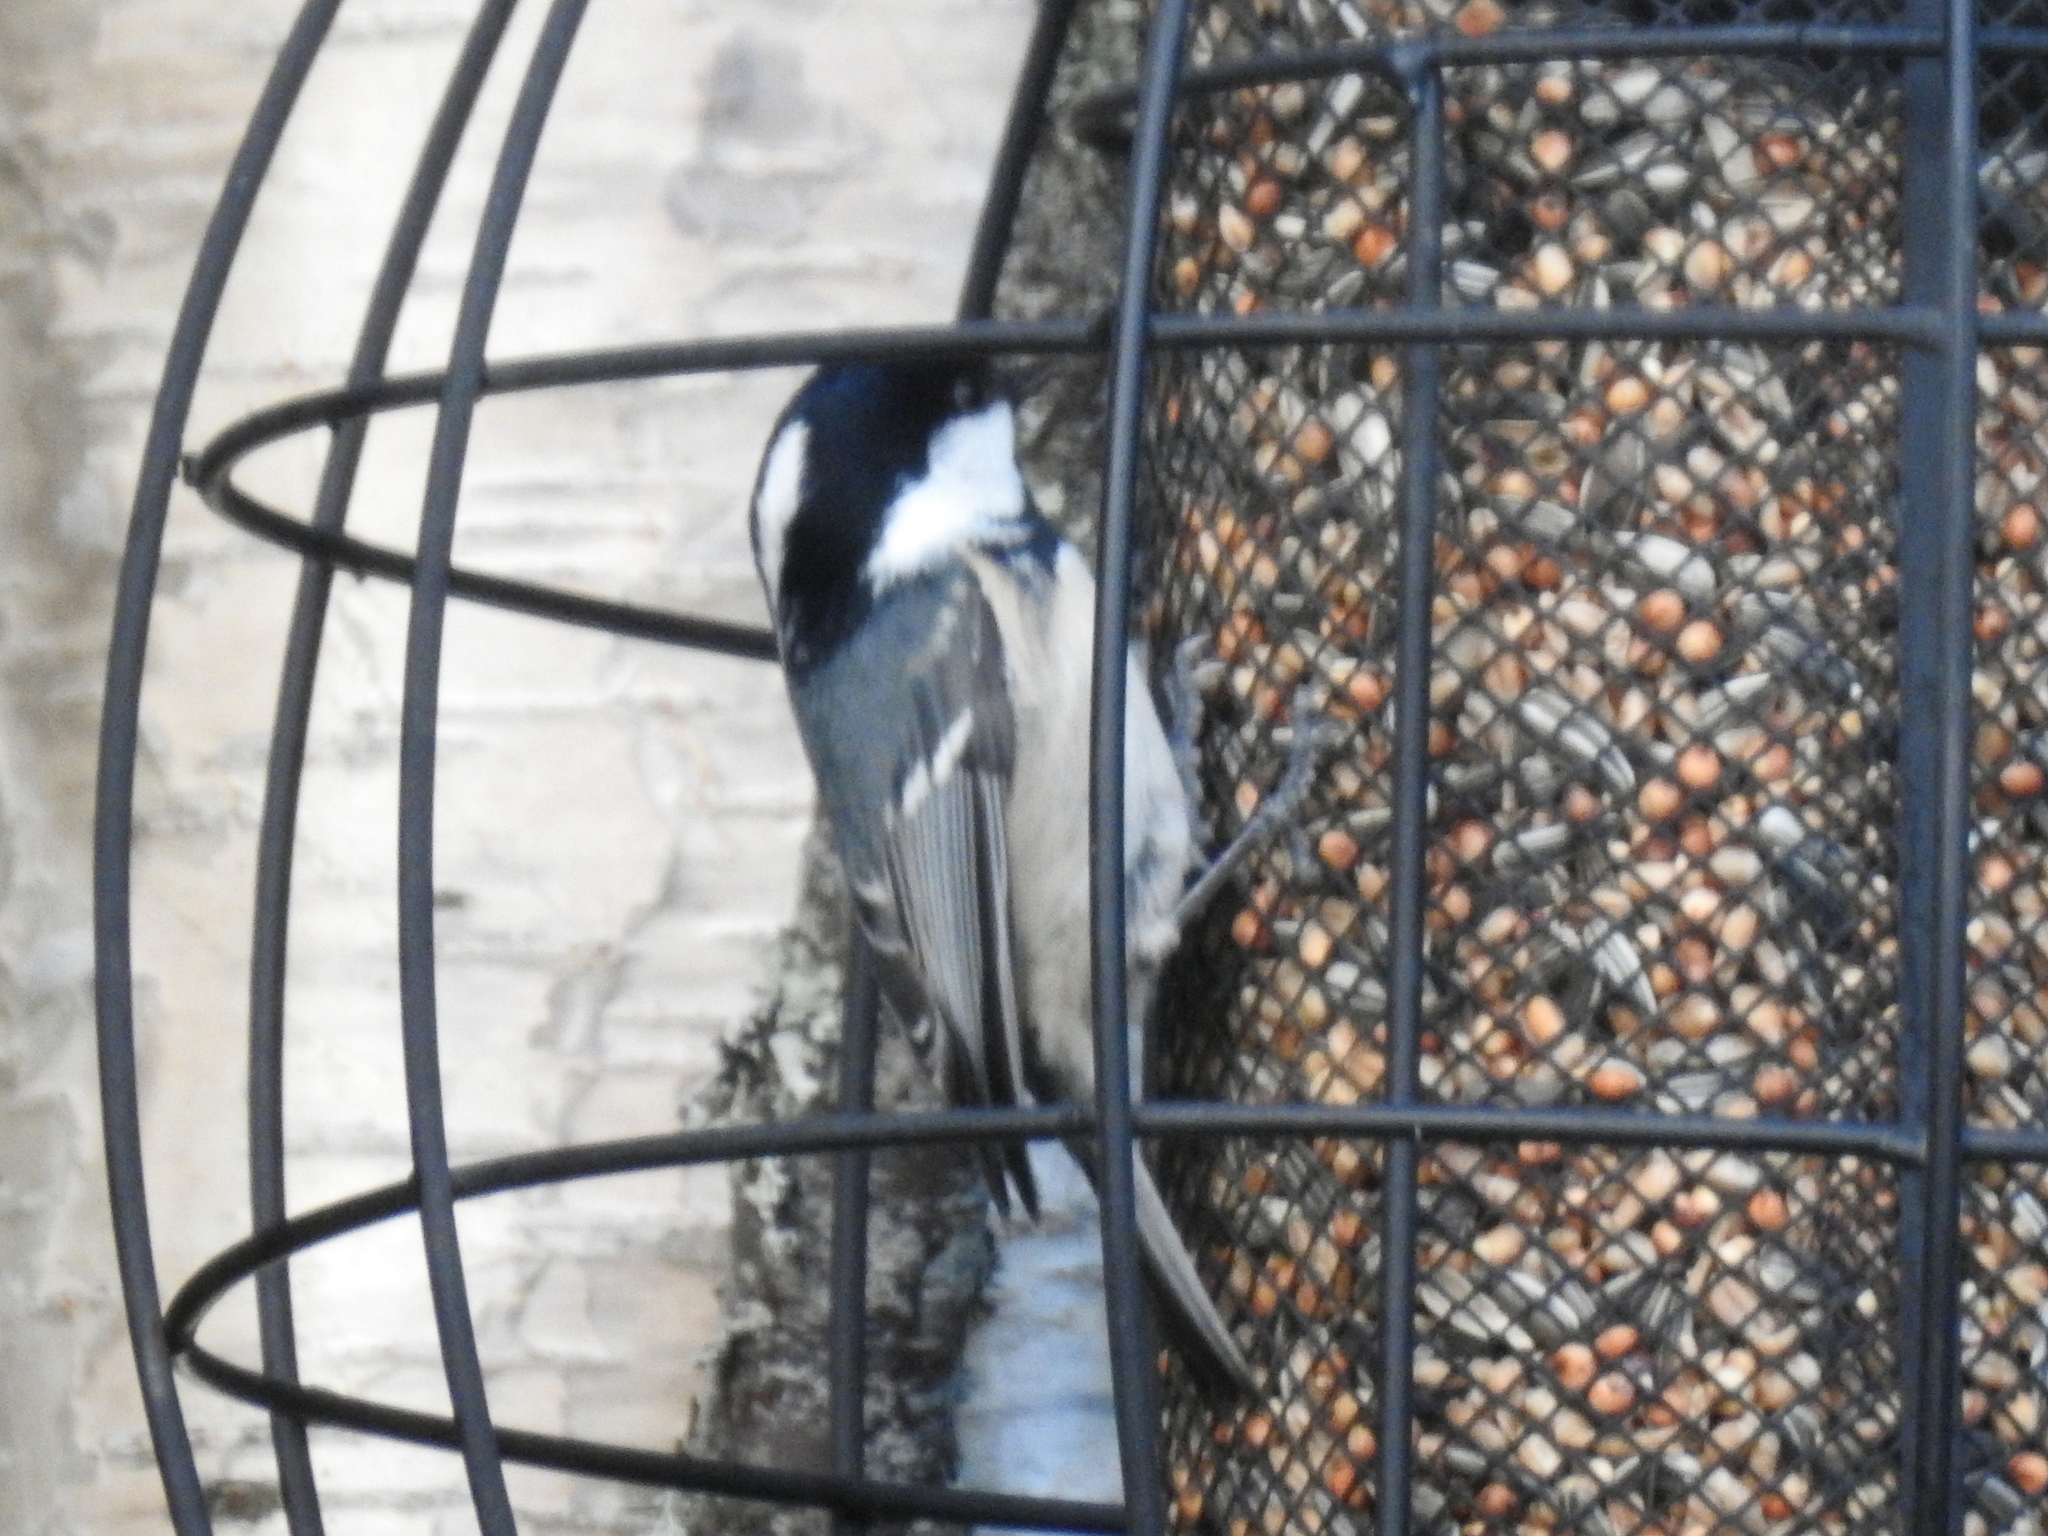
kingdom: Animalia
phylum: Chordata
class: Aves
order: Passeriformes
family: Paridae
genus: Periparus
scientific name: Periparus ater
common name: Coal tit
